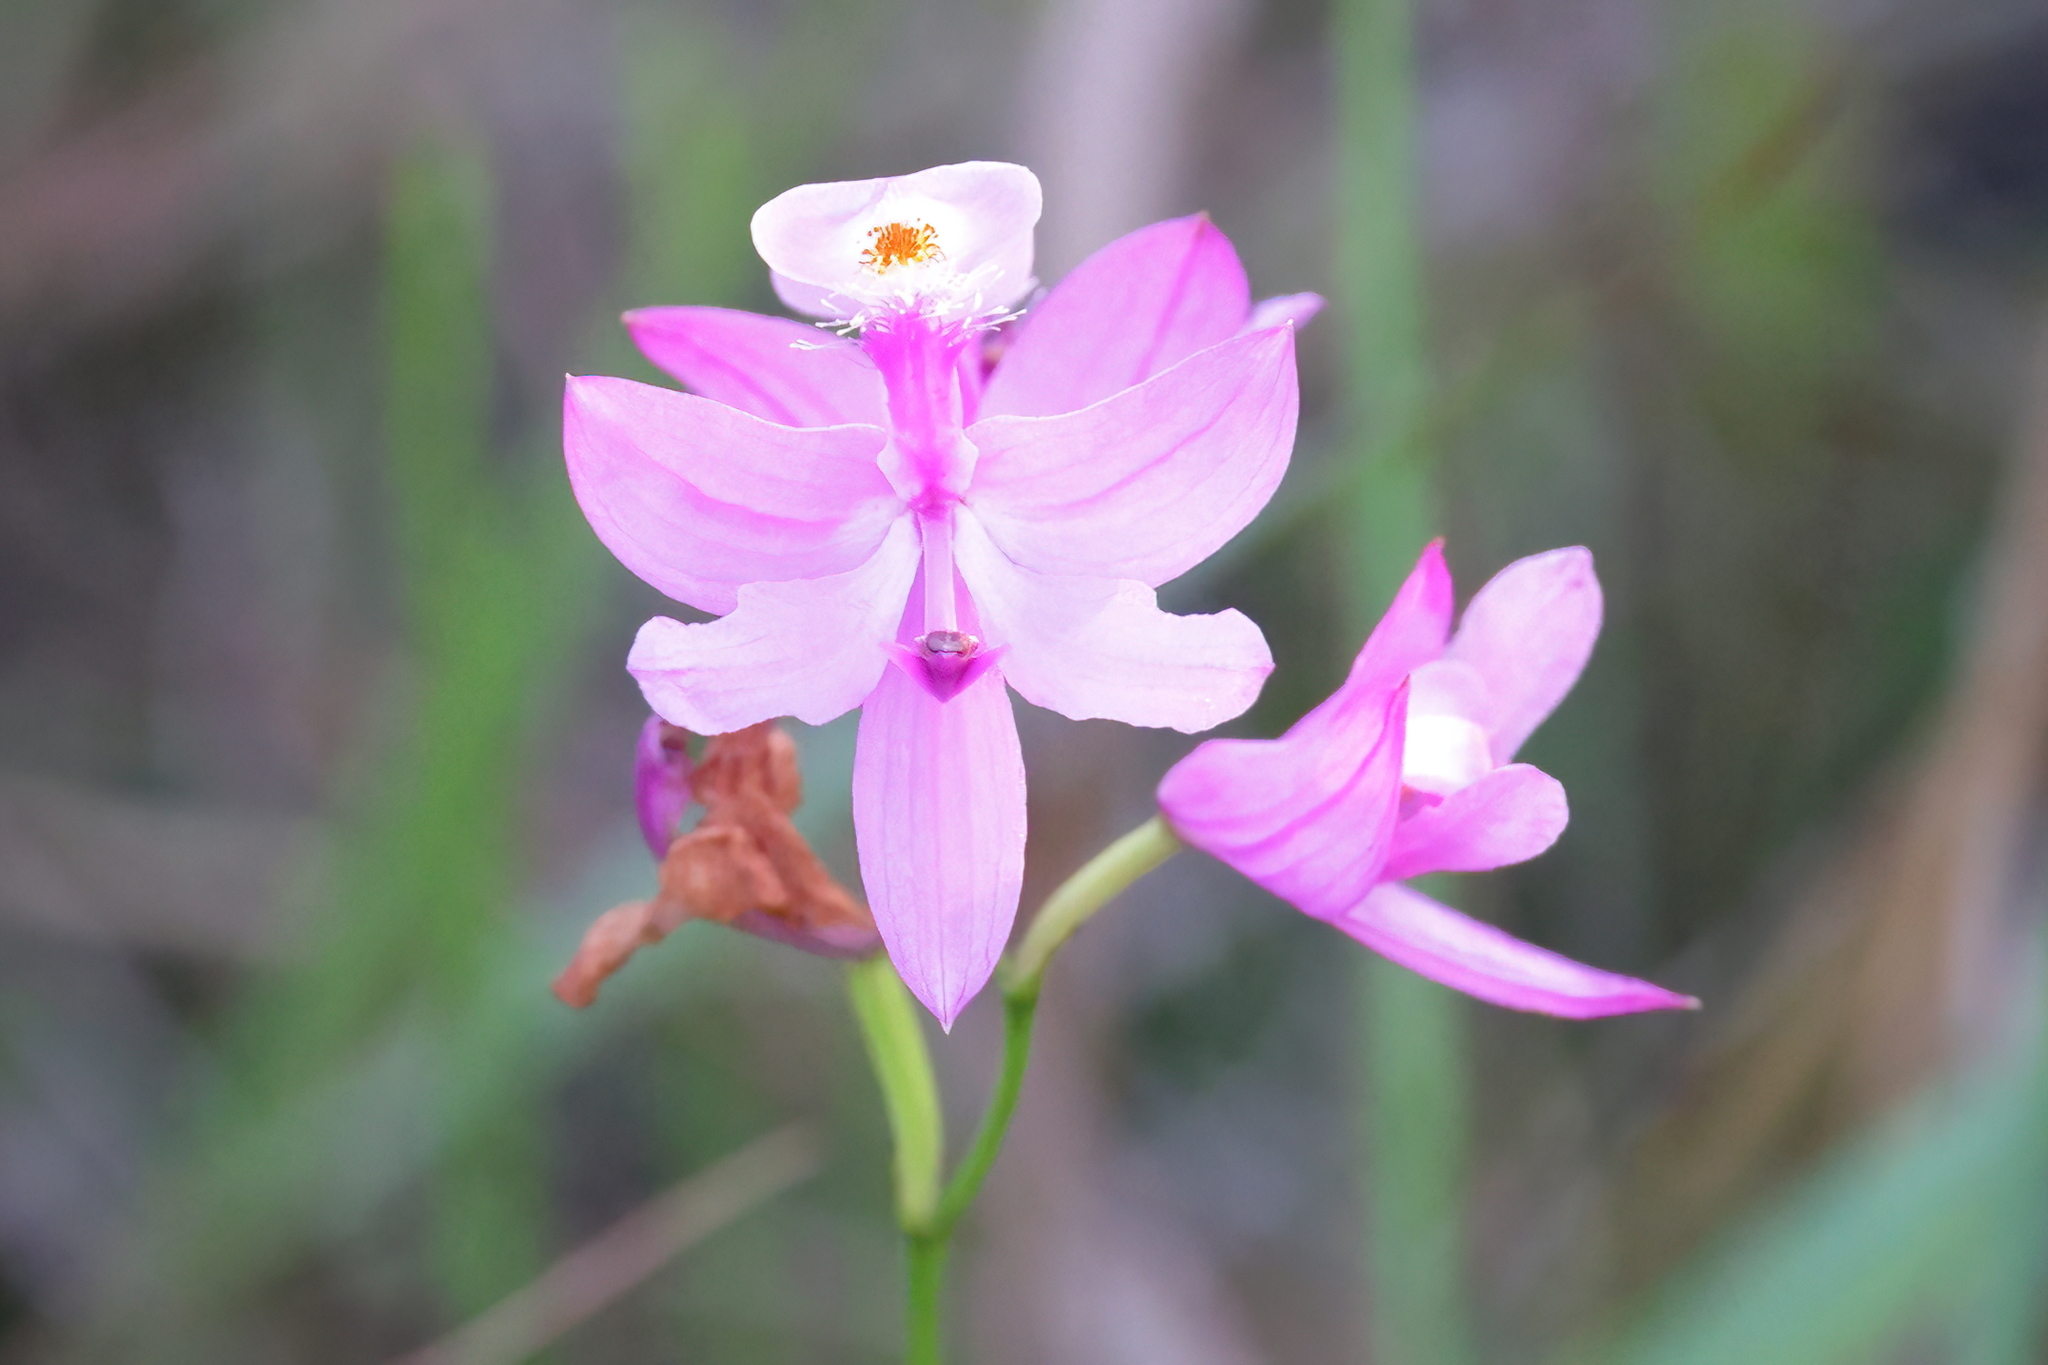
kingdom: Plantae
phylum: Tracheophyta
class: Liliopsida
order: Asparagales
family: Orchidaceae
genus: Calopogon
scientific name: Calopogon tuberosus
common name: Grass-pink
